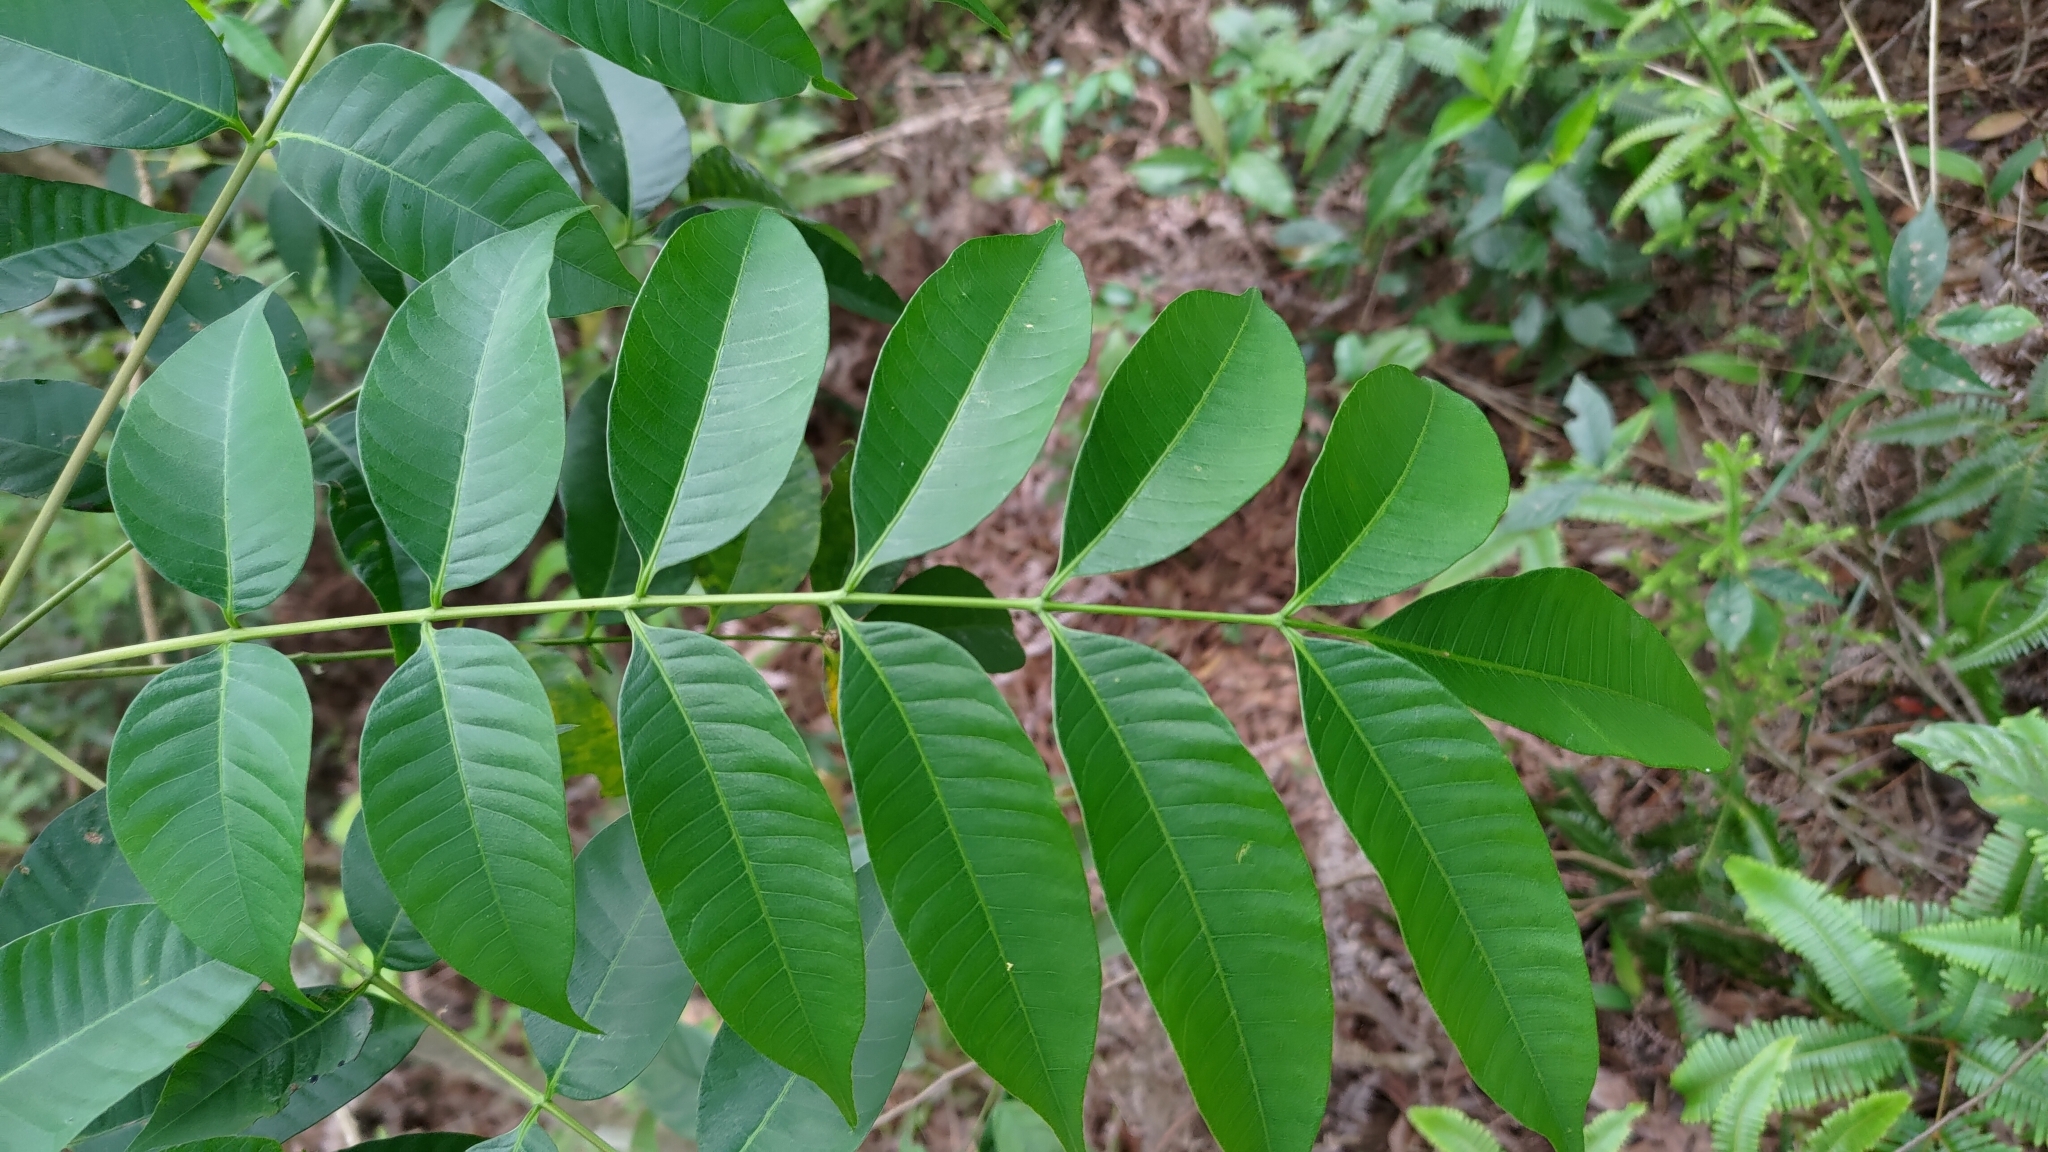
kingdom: Plantae
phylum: Tracheophyta
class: Magnoliopsida
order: Sapindales
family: Anacardiaceae
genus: Toxicodendron
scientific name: Toxicodendron succedaneum
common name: Wax tree
